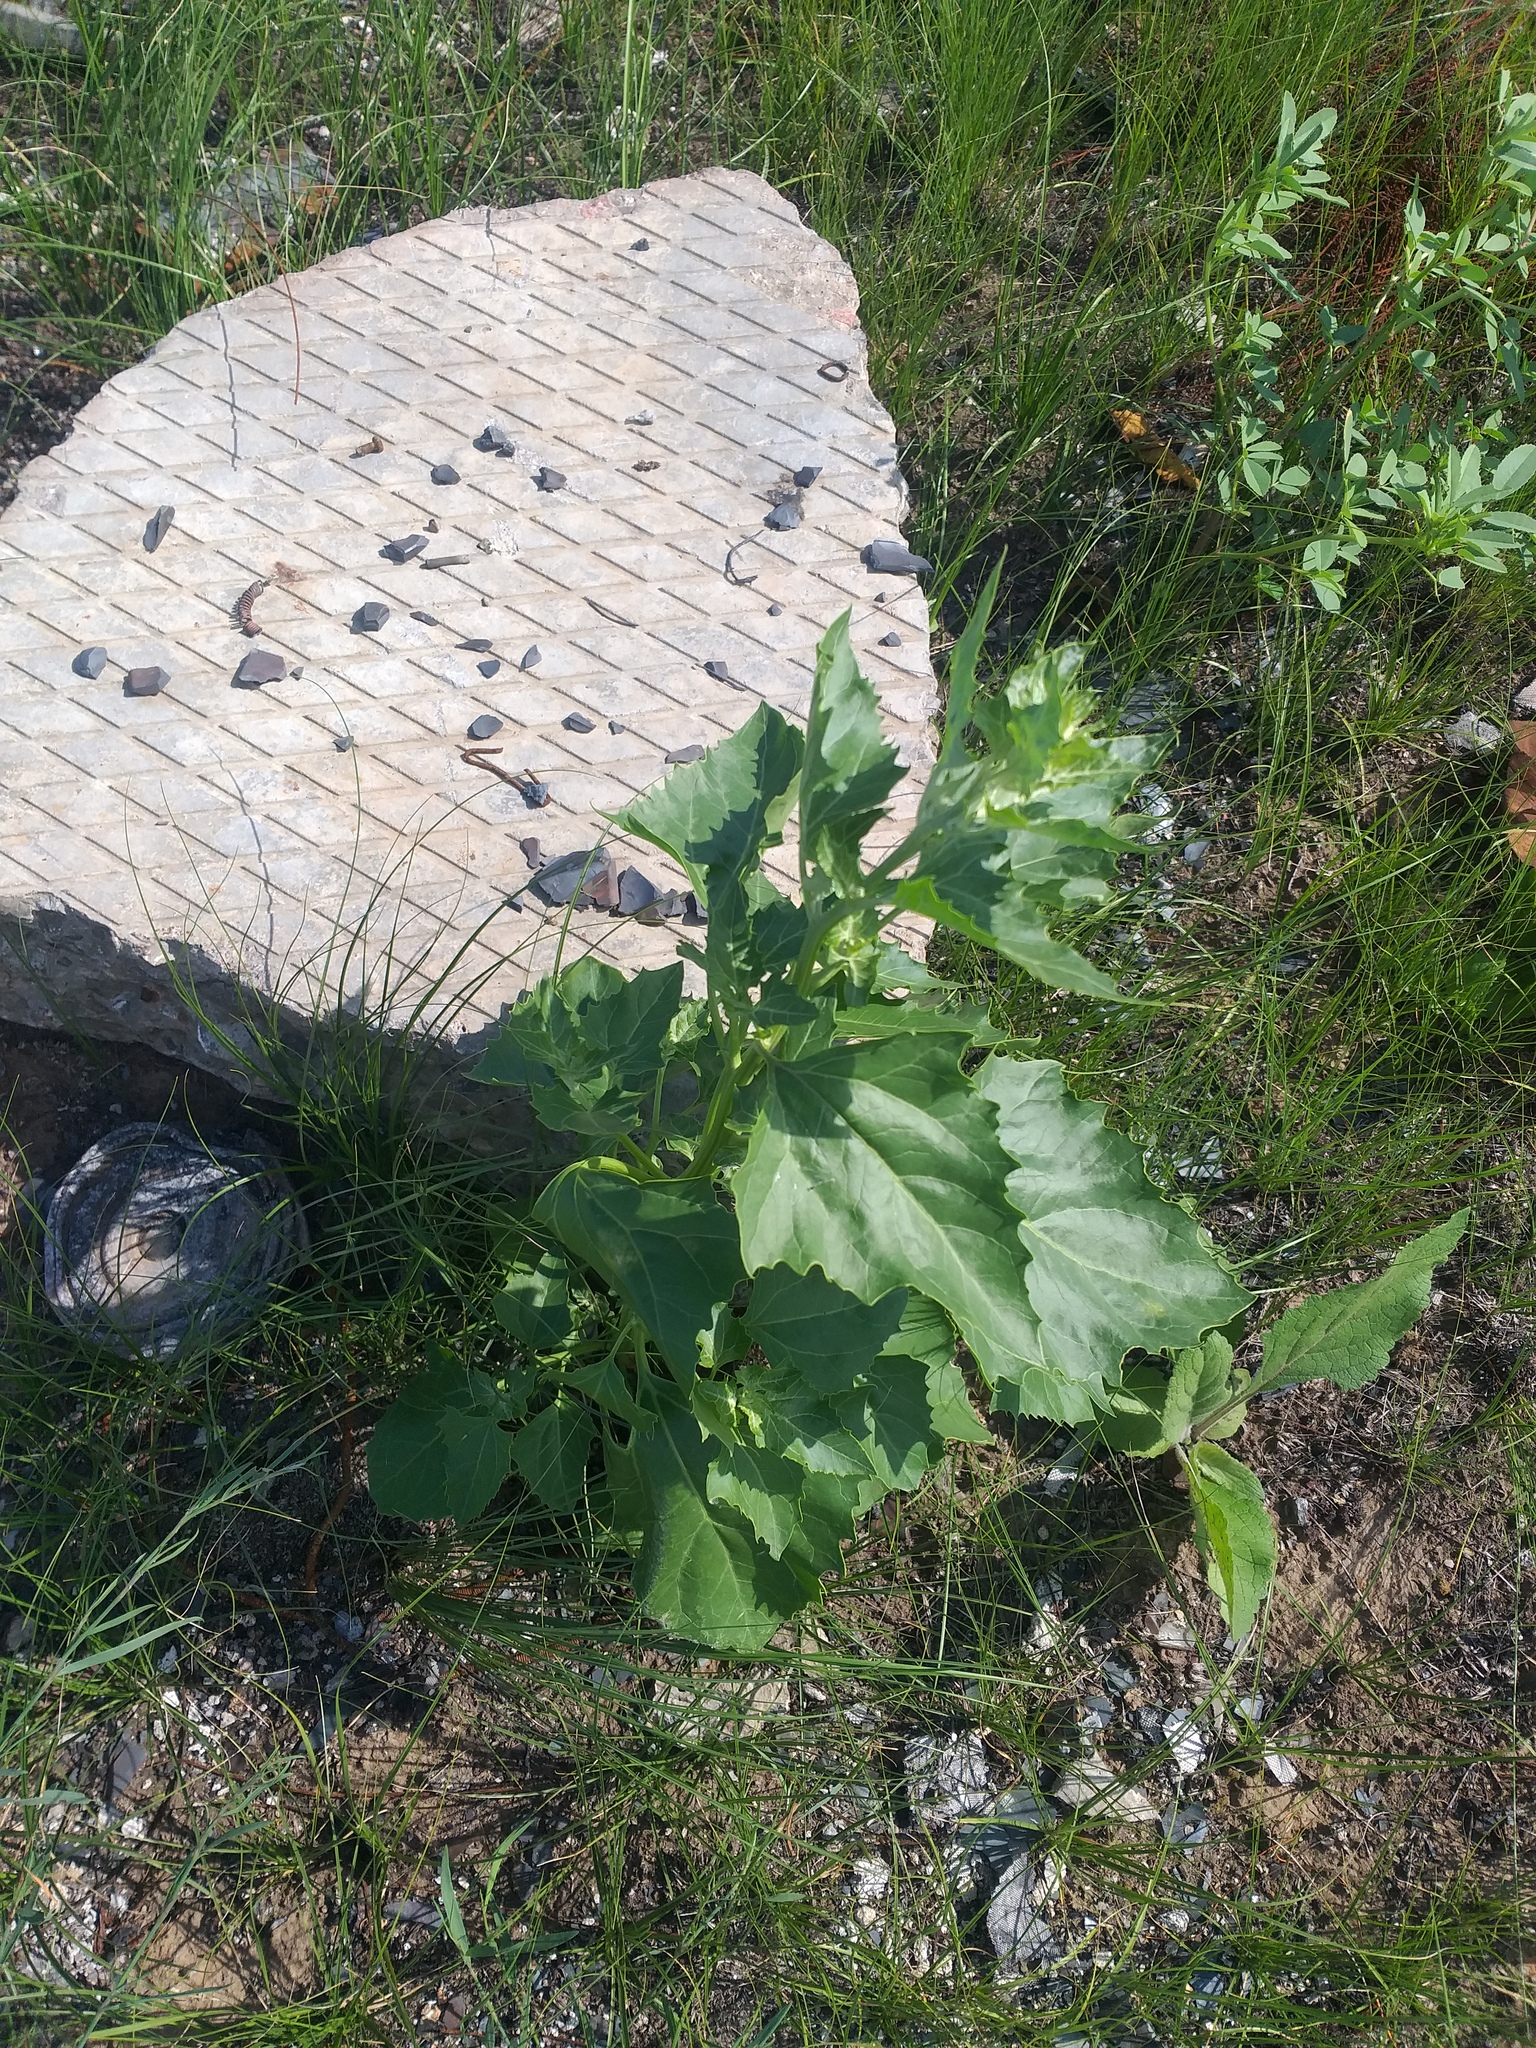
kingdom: Plantae
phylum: Tracheophyta
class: Magnoliopsida
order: Caryophyllales
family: Amaranthaceae
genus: Oxybasis
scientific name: Oxybasis urbica
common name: City goosefoot
